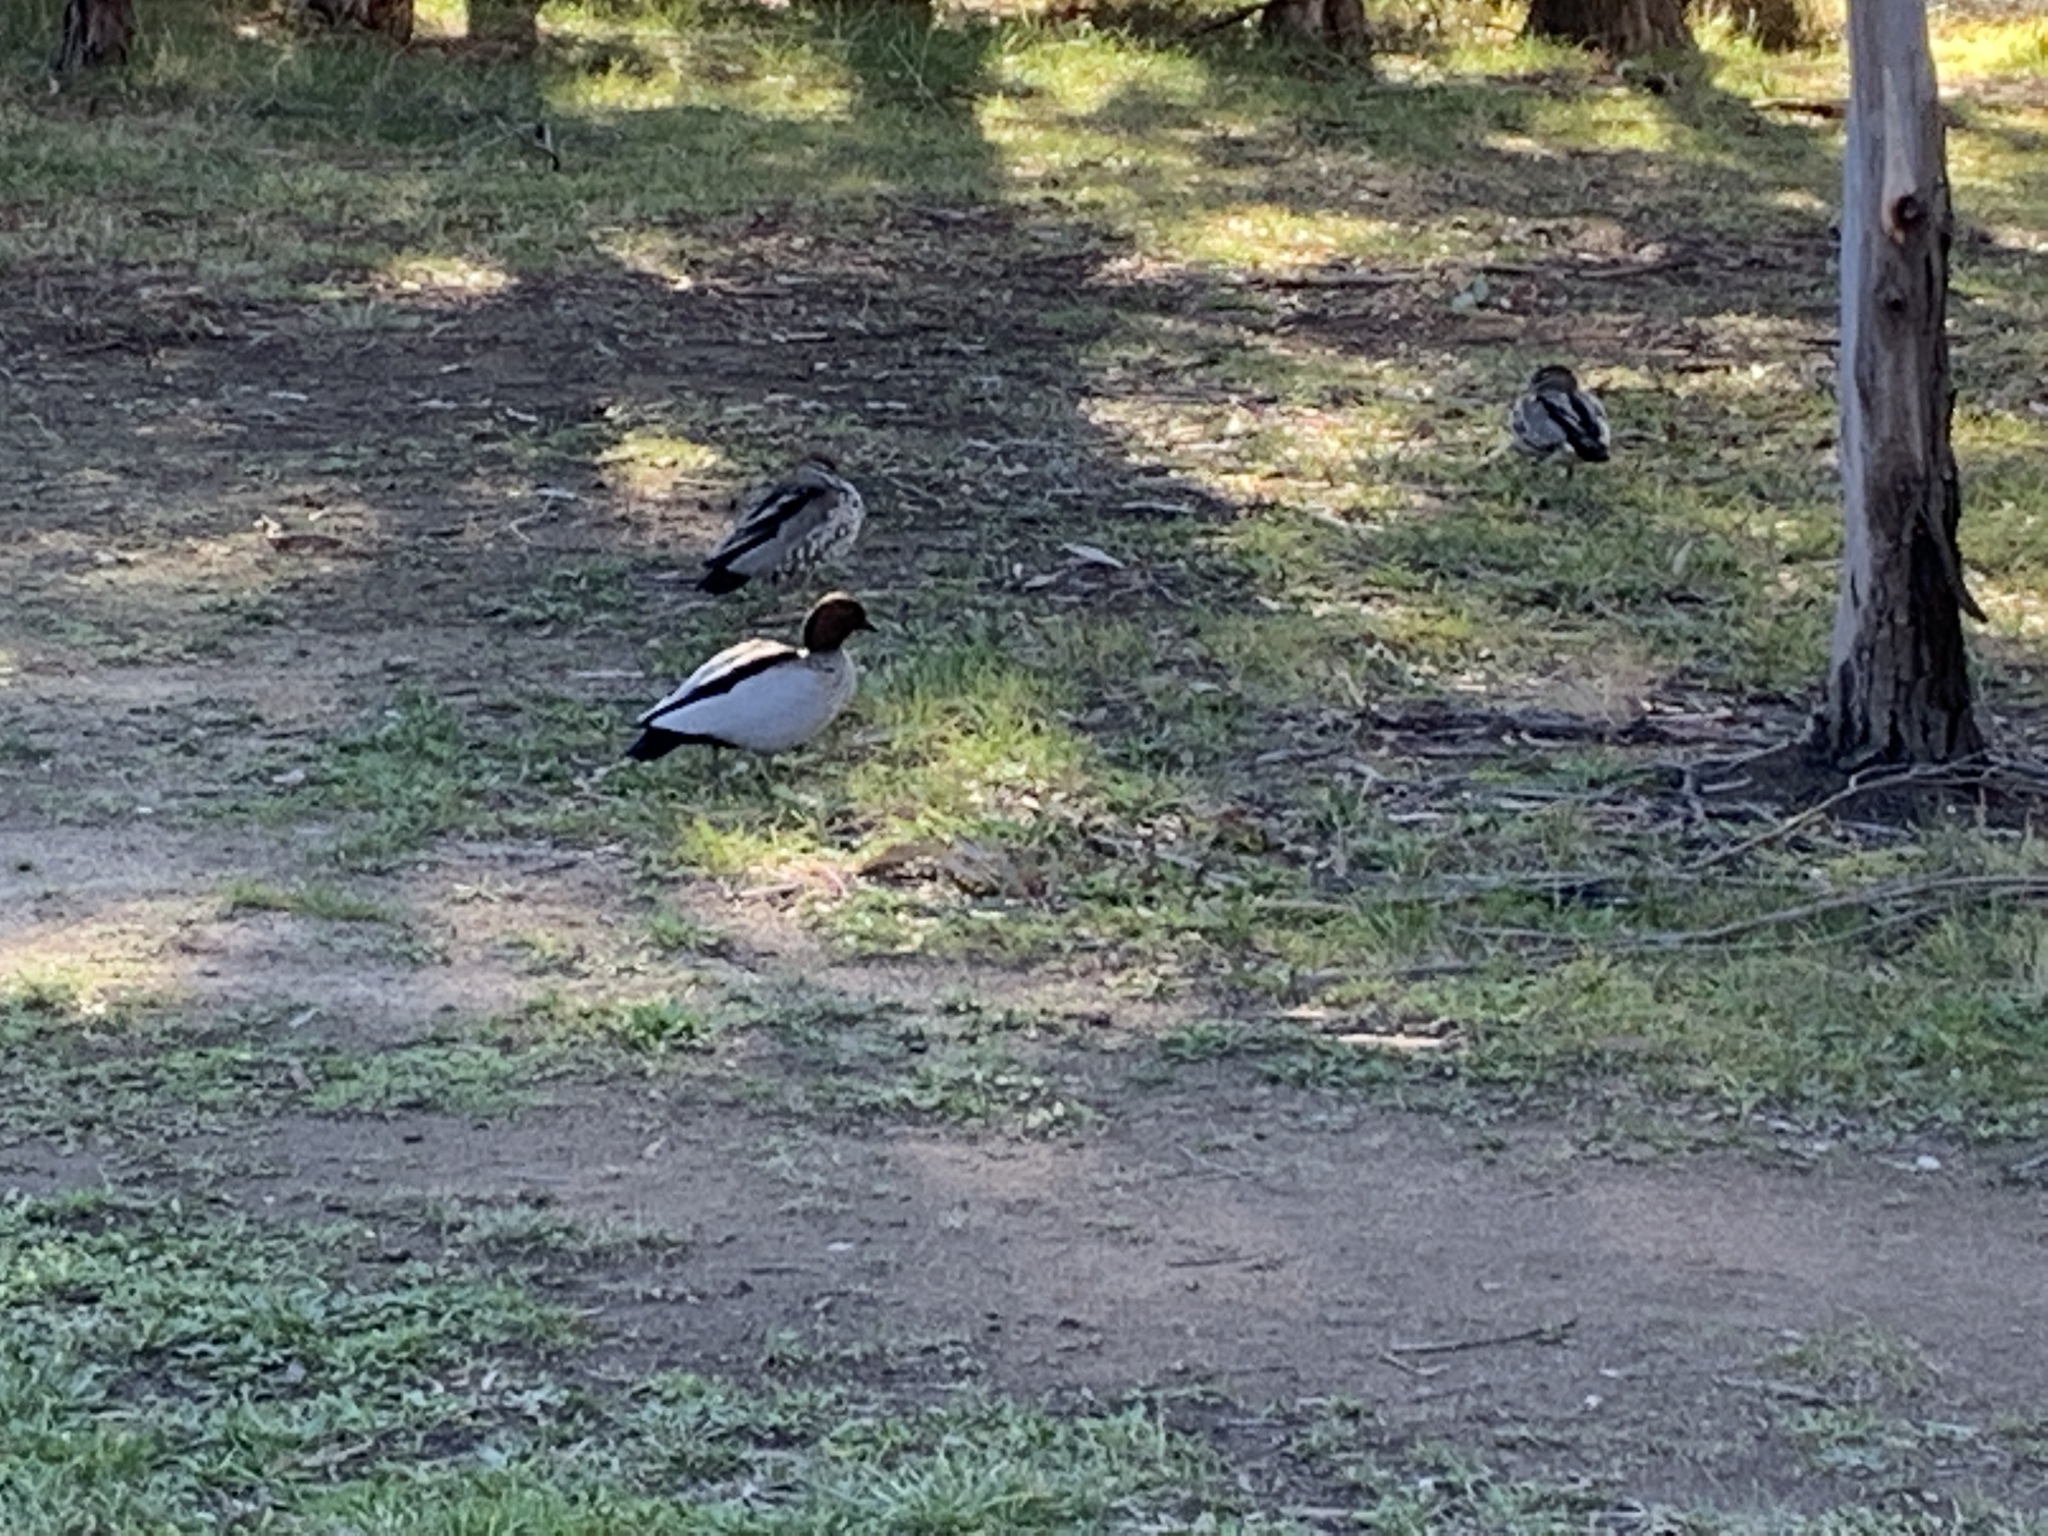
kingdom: Animalia
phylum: Chordata
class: Aves
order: Anseriformes
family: Anatidae
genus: Chenonetta
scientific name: Chenonetta jubata
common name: Maned duck
